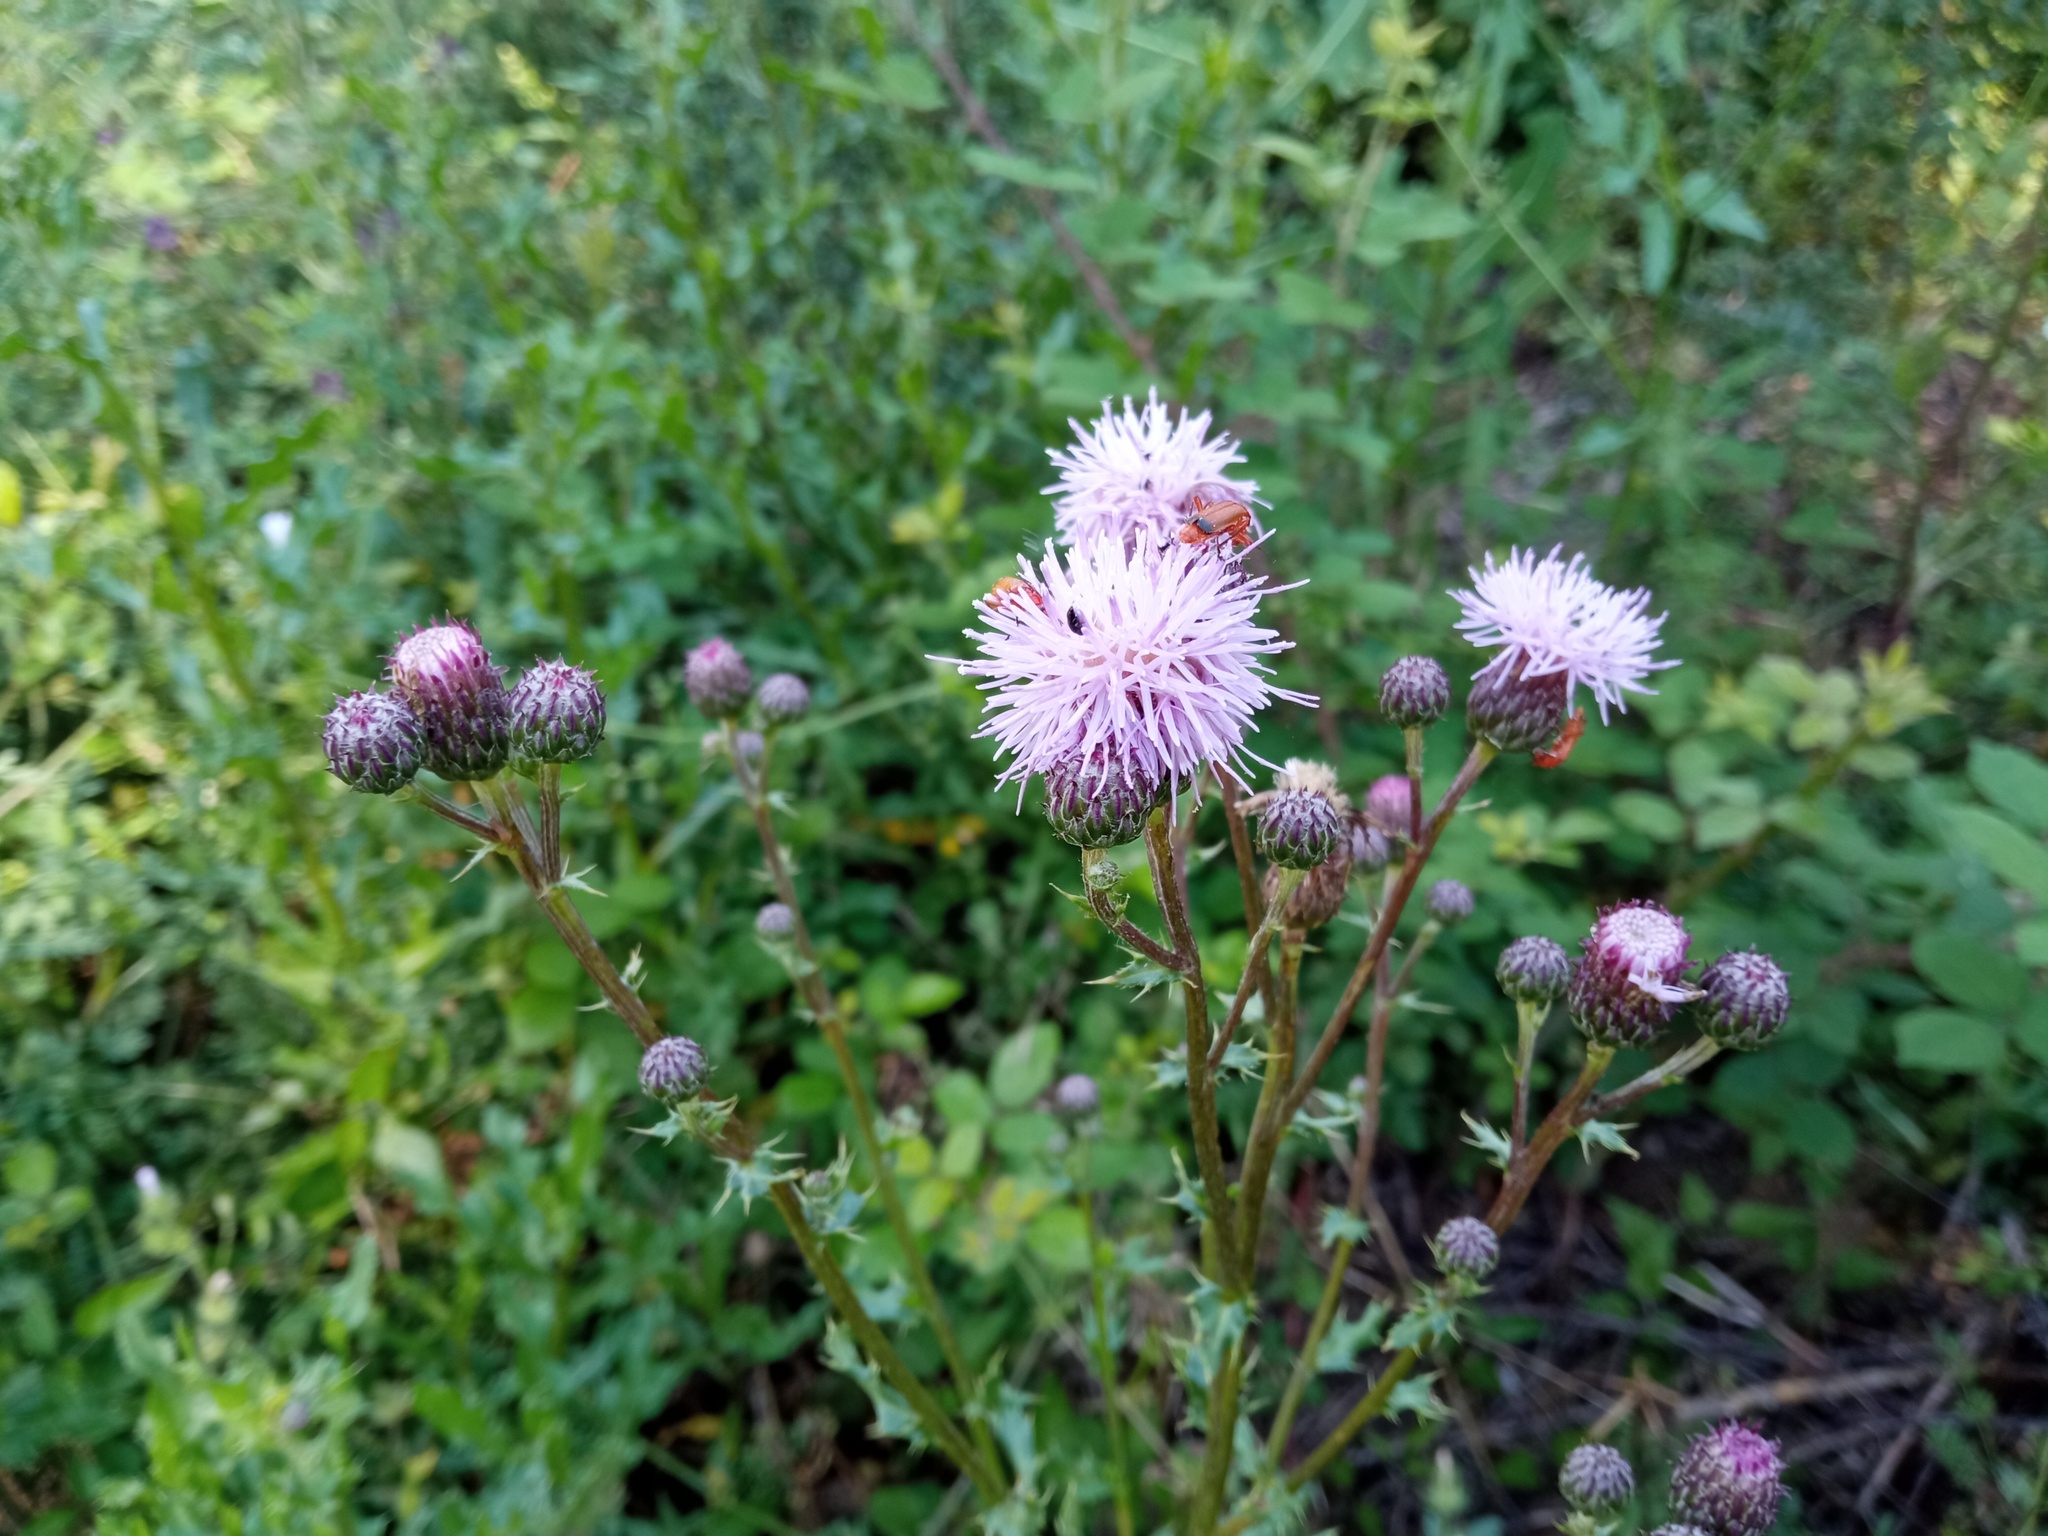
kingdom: Plantae
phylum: Tracheophyta
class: Magnoliopsida
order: Asterales
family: Asteraceae
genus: Cirsium
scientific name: Cirsium arvense
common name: Creeping thistle
